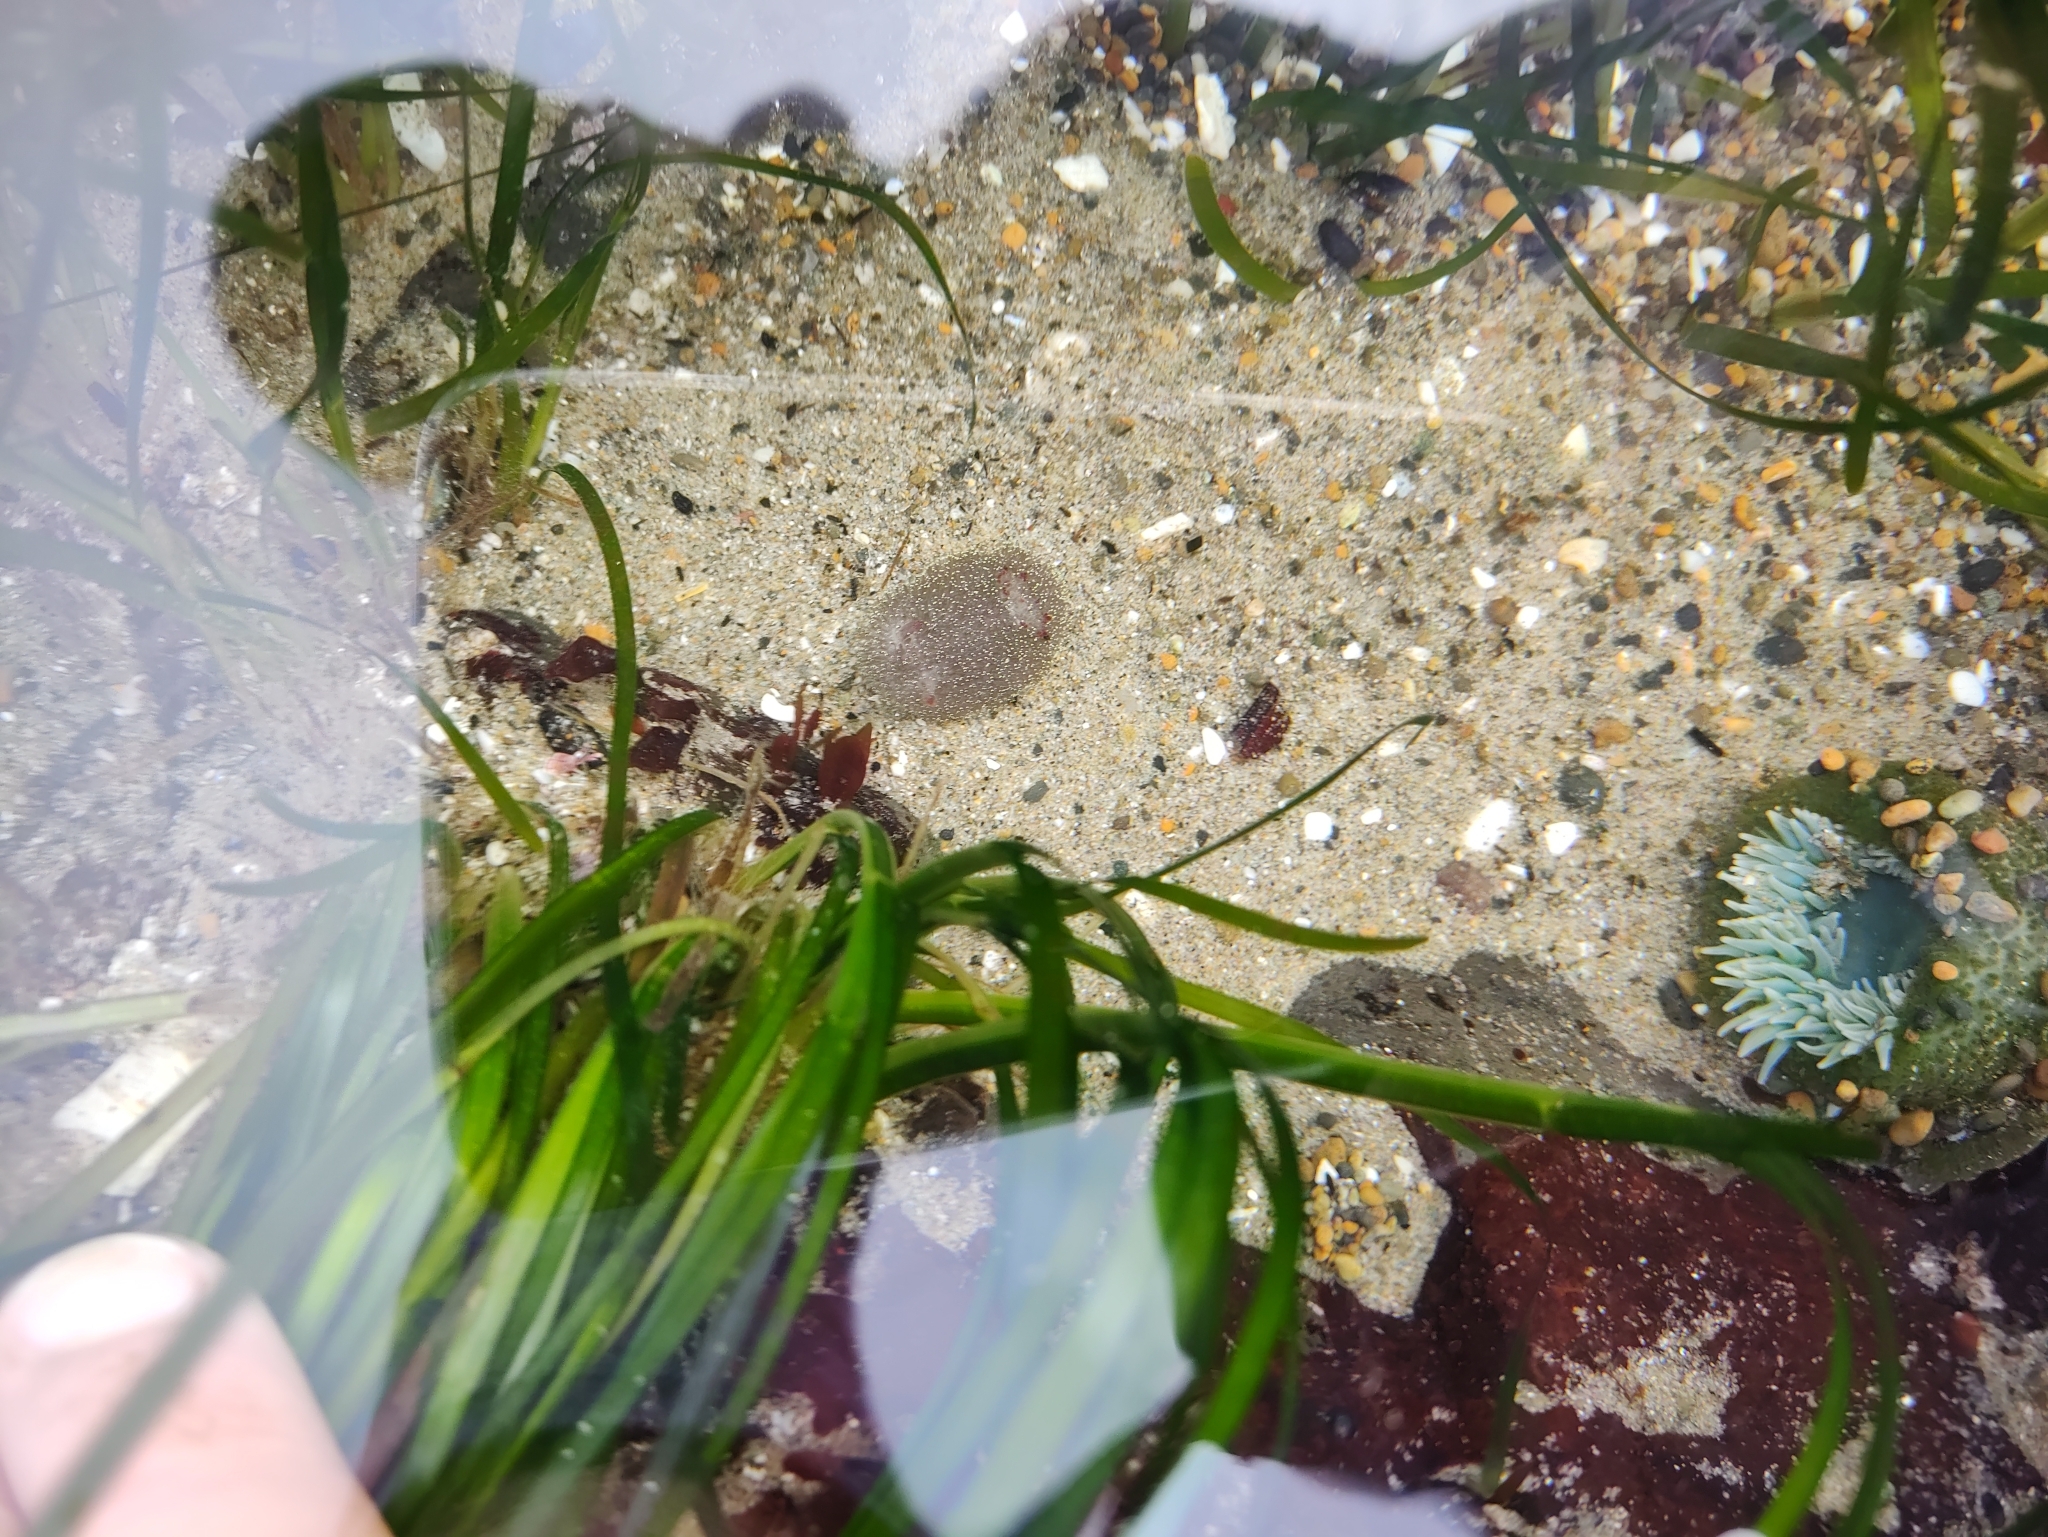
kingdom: Animalia
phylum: Mollusca
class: Gastropoda
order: Nudibranchia
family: Onchidorididae
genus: Acanthodoris
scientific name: Acanthodoris nanaimoensis
